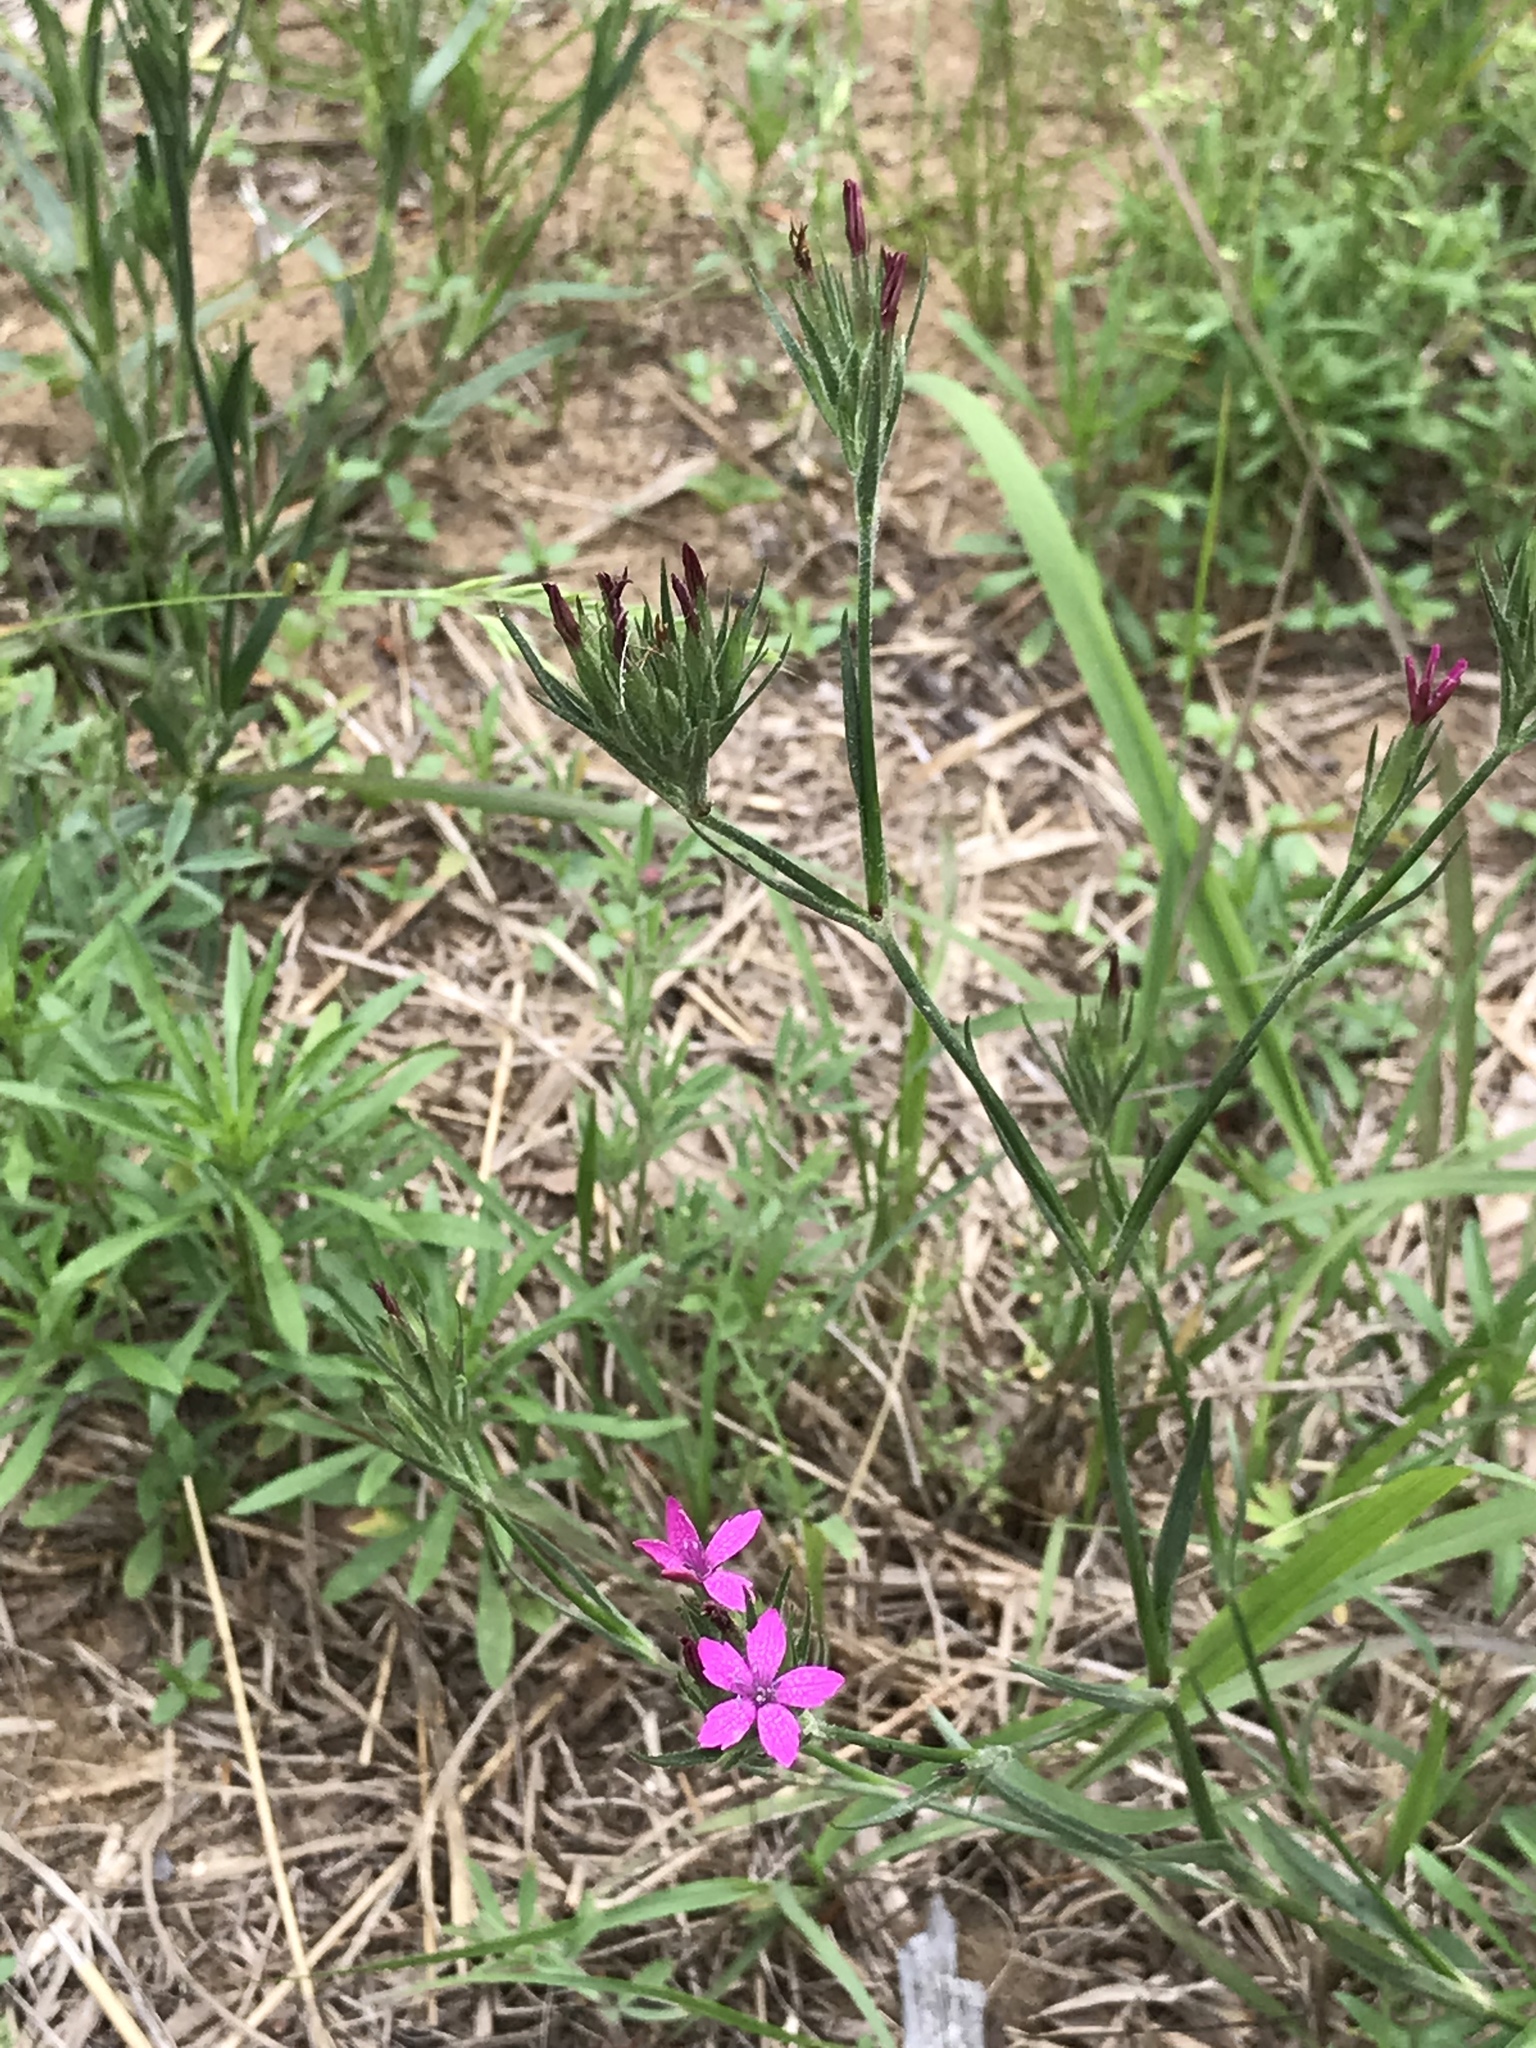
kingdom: Plantae
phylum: Tracheophyta
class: Magnoliopsida
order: Caryophyllales
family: Caryophyllaceae
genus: Dianthus
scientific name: Dianthus armeria
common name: Deptford pink
